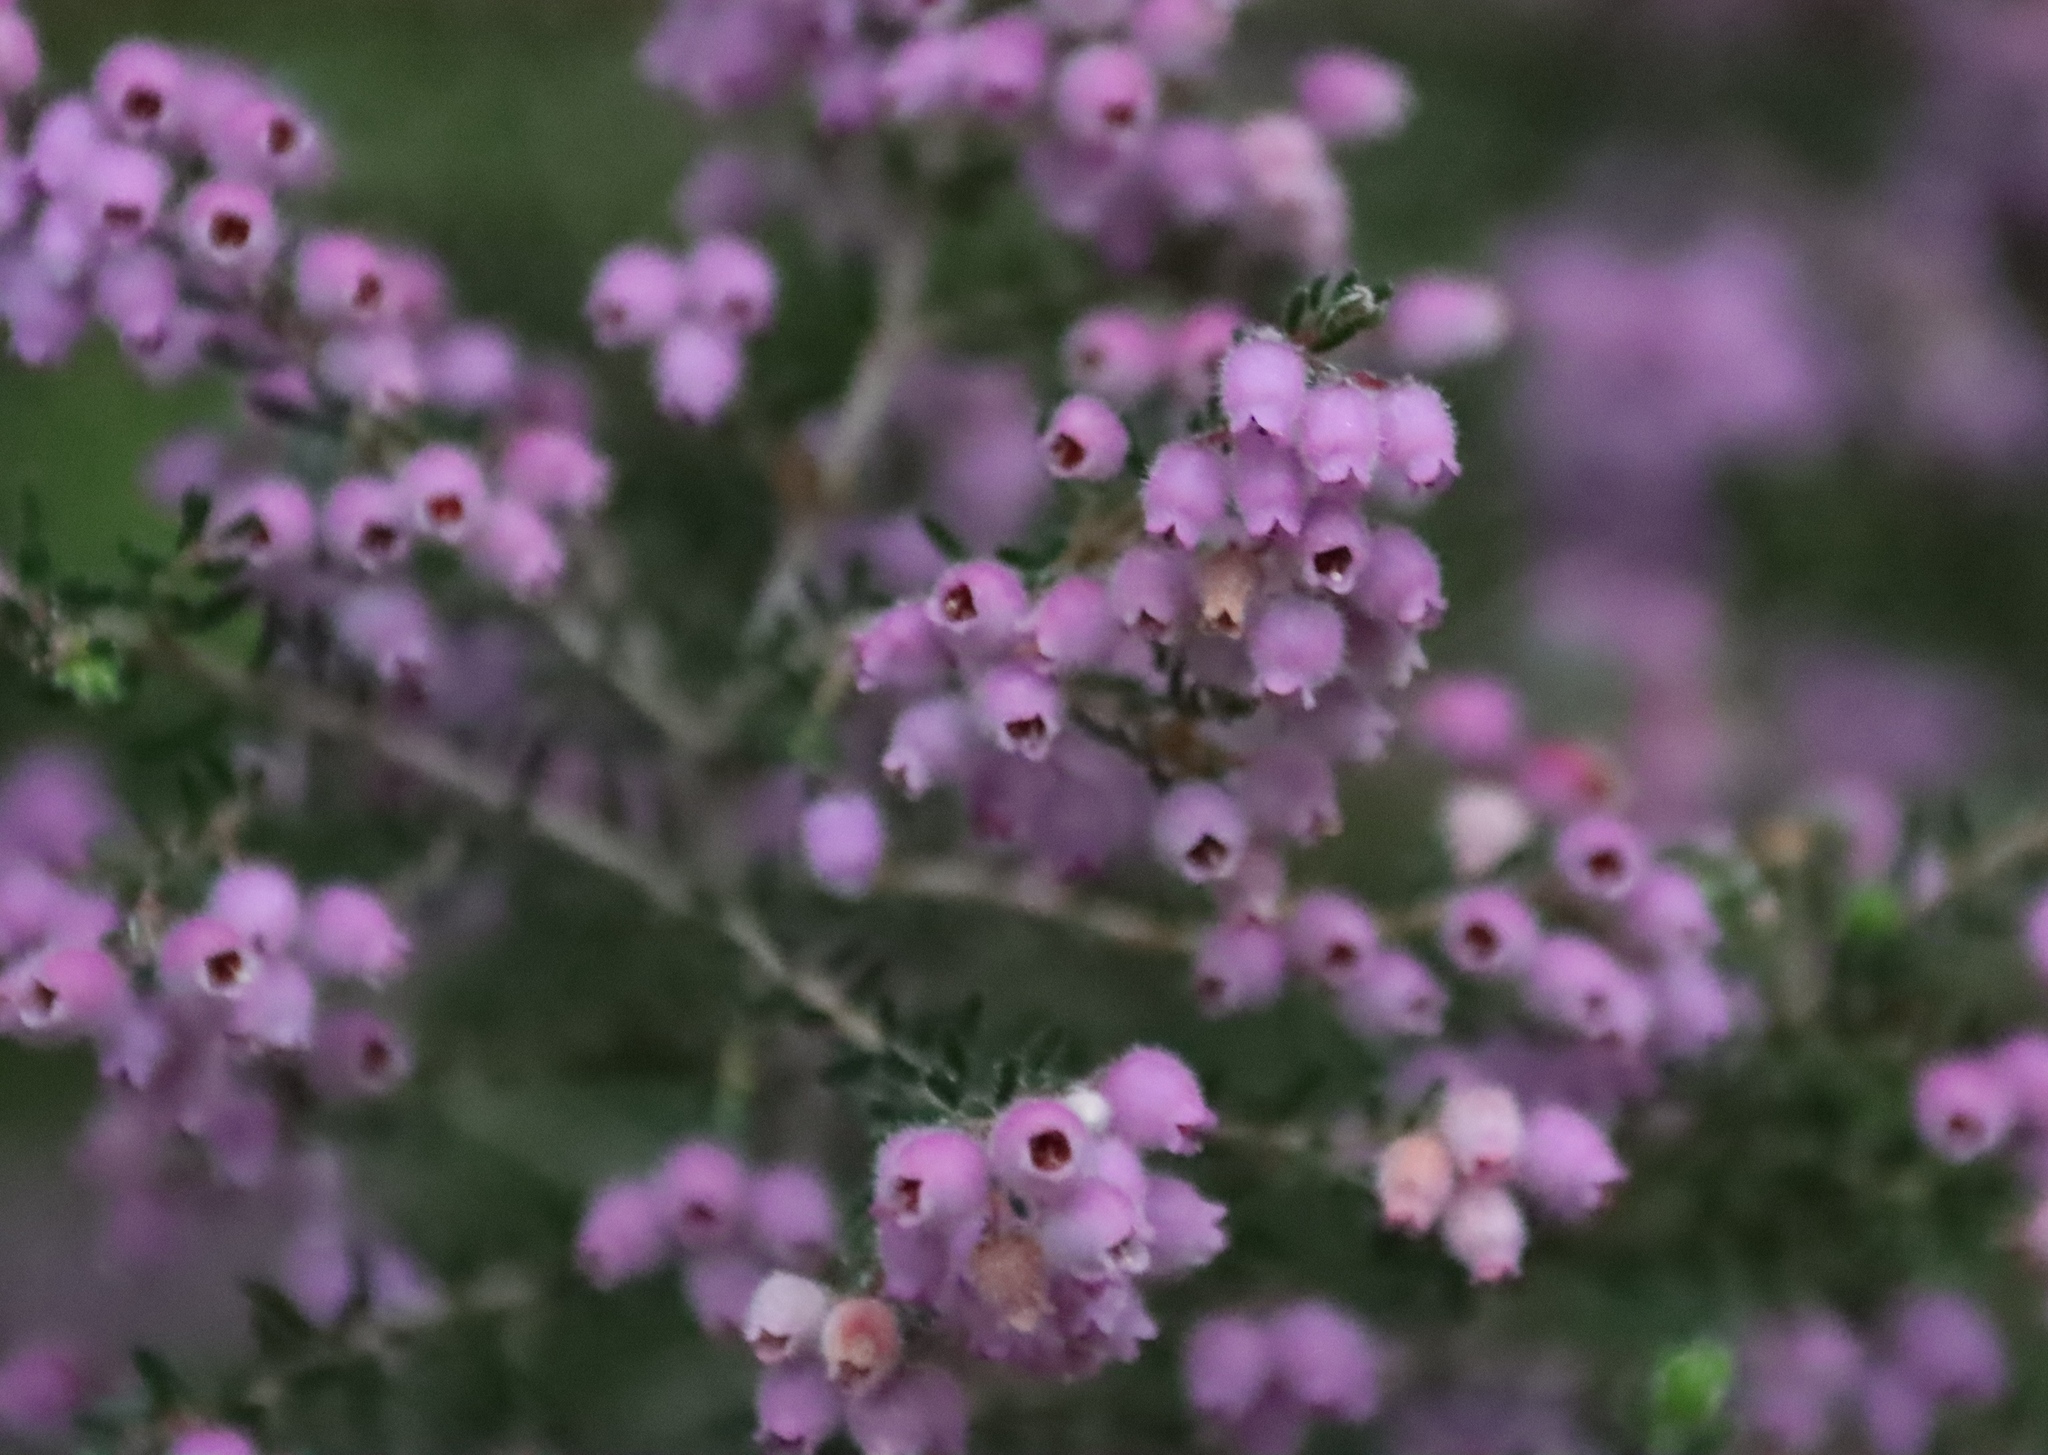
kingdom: Plantae
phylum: Tracheophyta
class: Magnoliopsida
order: Ericales
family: Ericaceae
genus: Erica
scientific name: Erica hirtiflora
